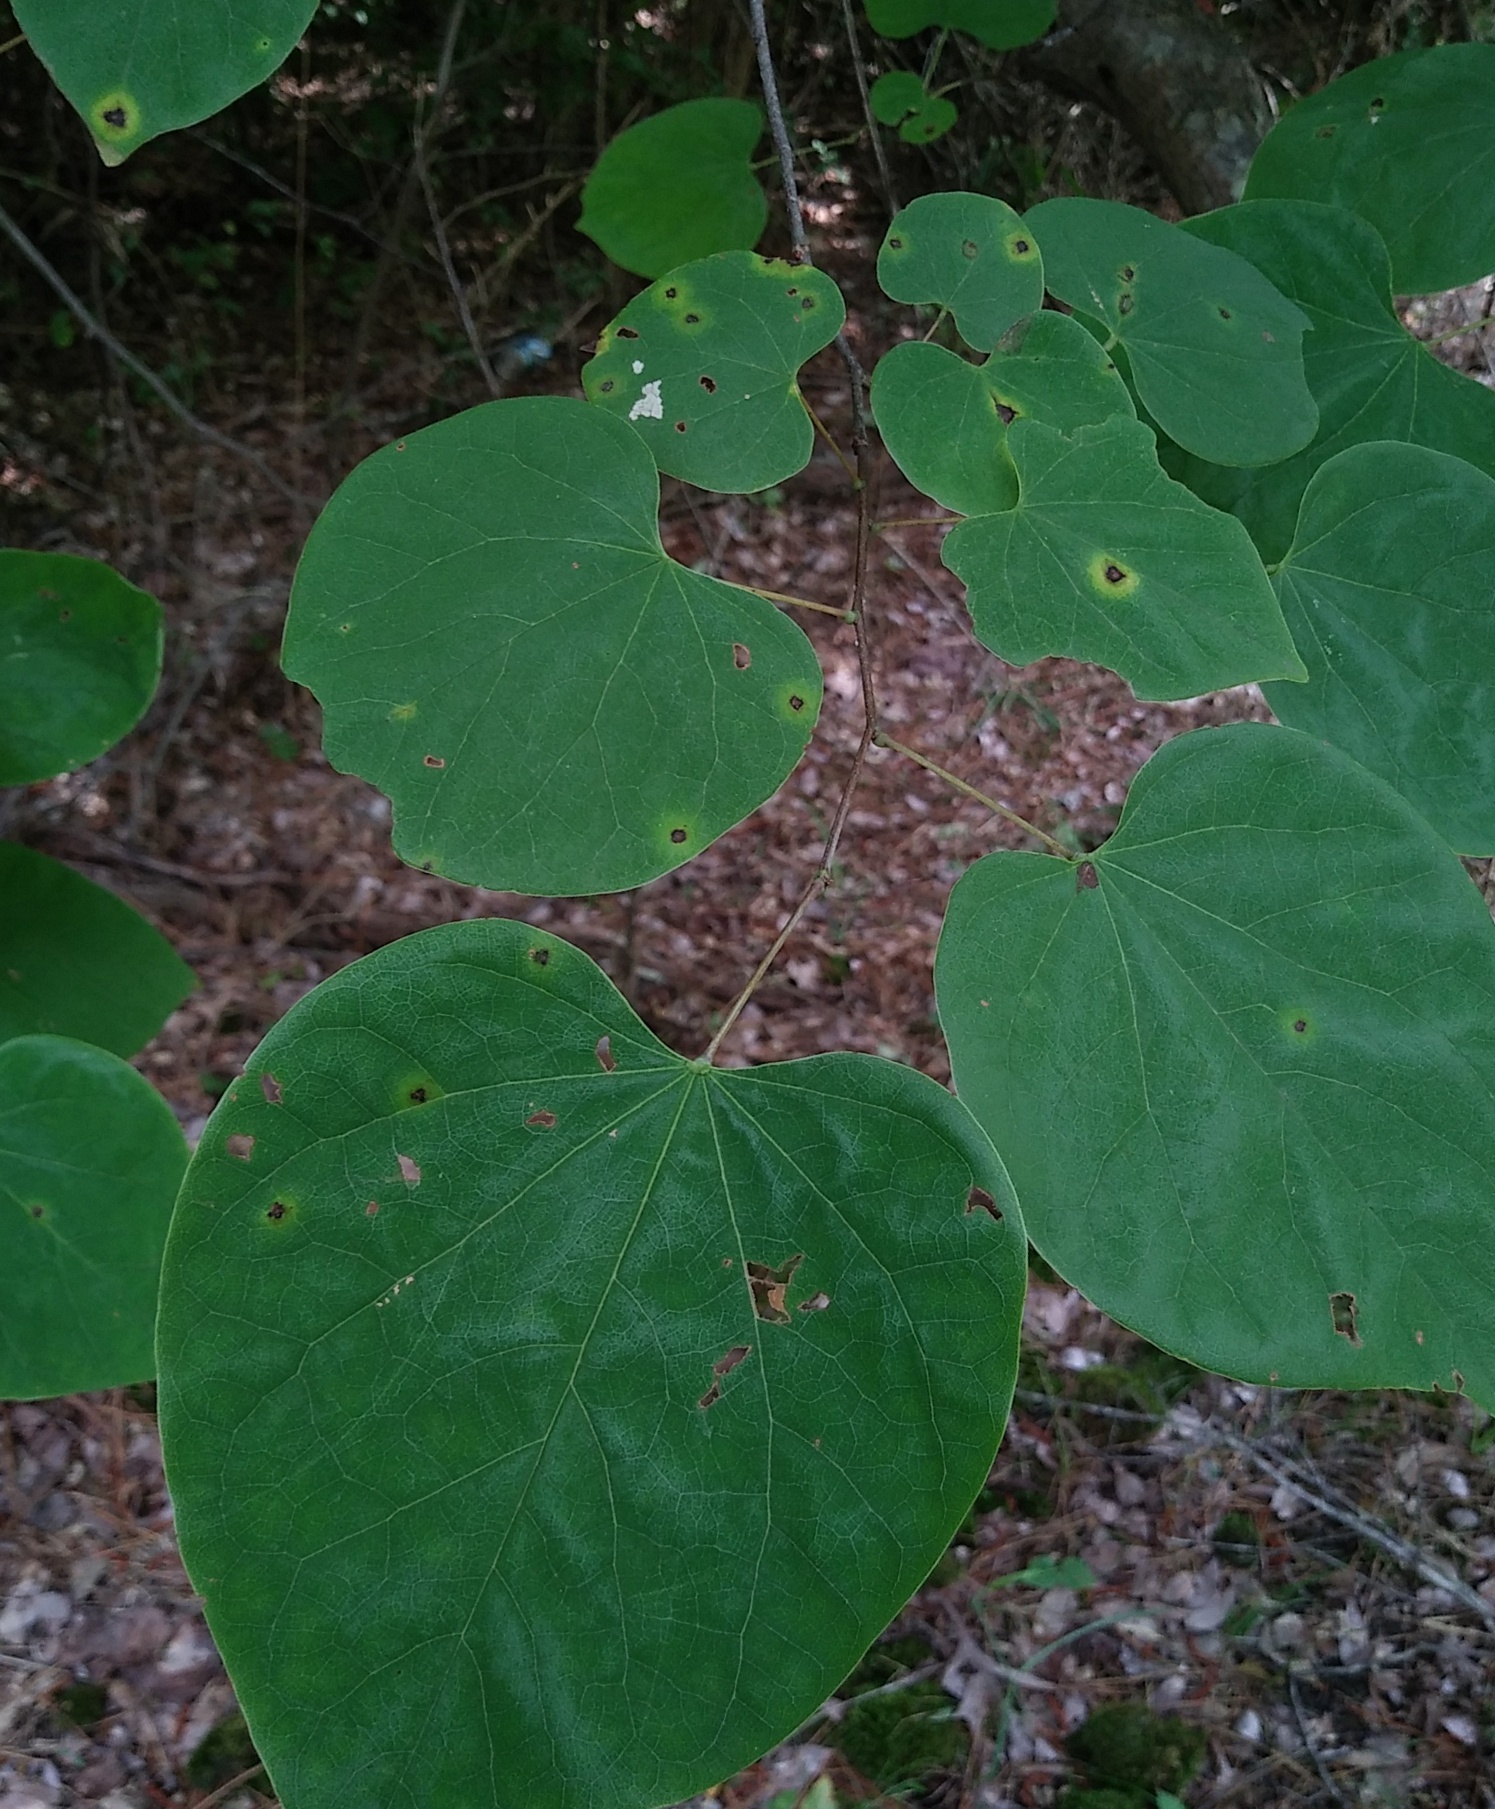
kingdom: Plantae
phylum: Tracheophyta
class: Magnoliopsida
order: Fabales
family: Fabaceae
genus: Cercis
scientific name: Cercis canadensis
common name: Eastern redbud
